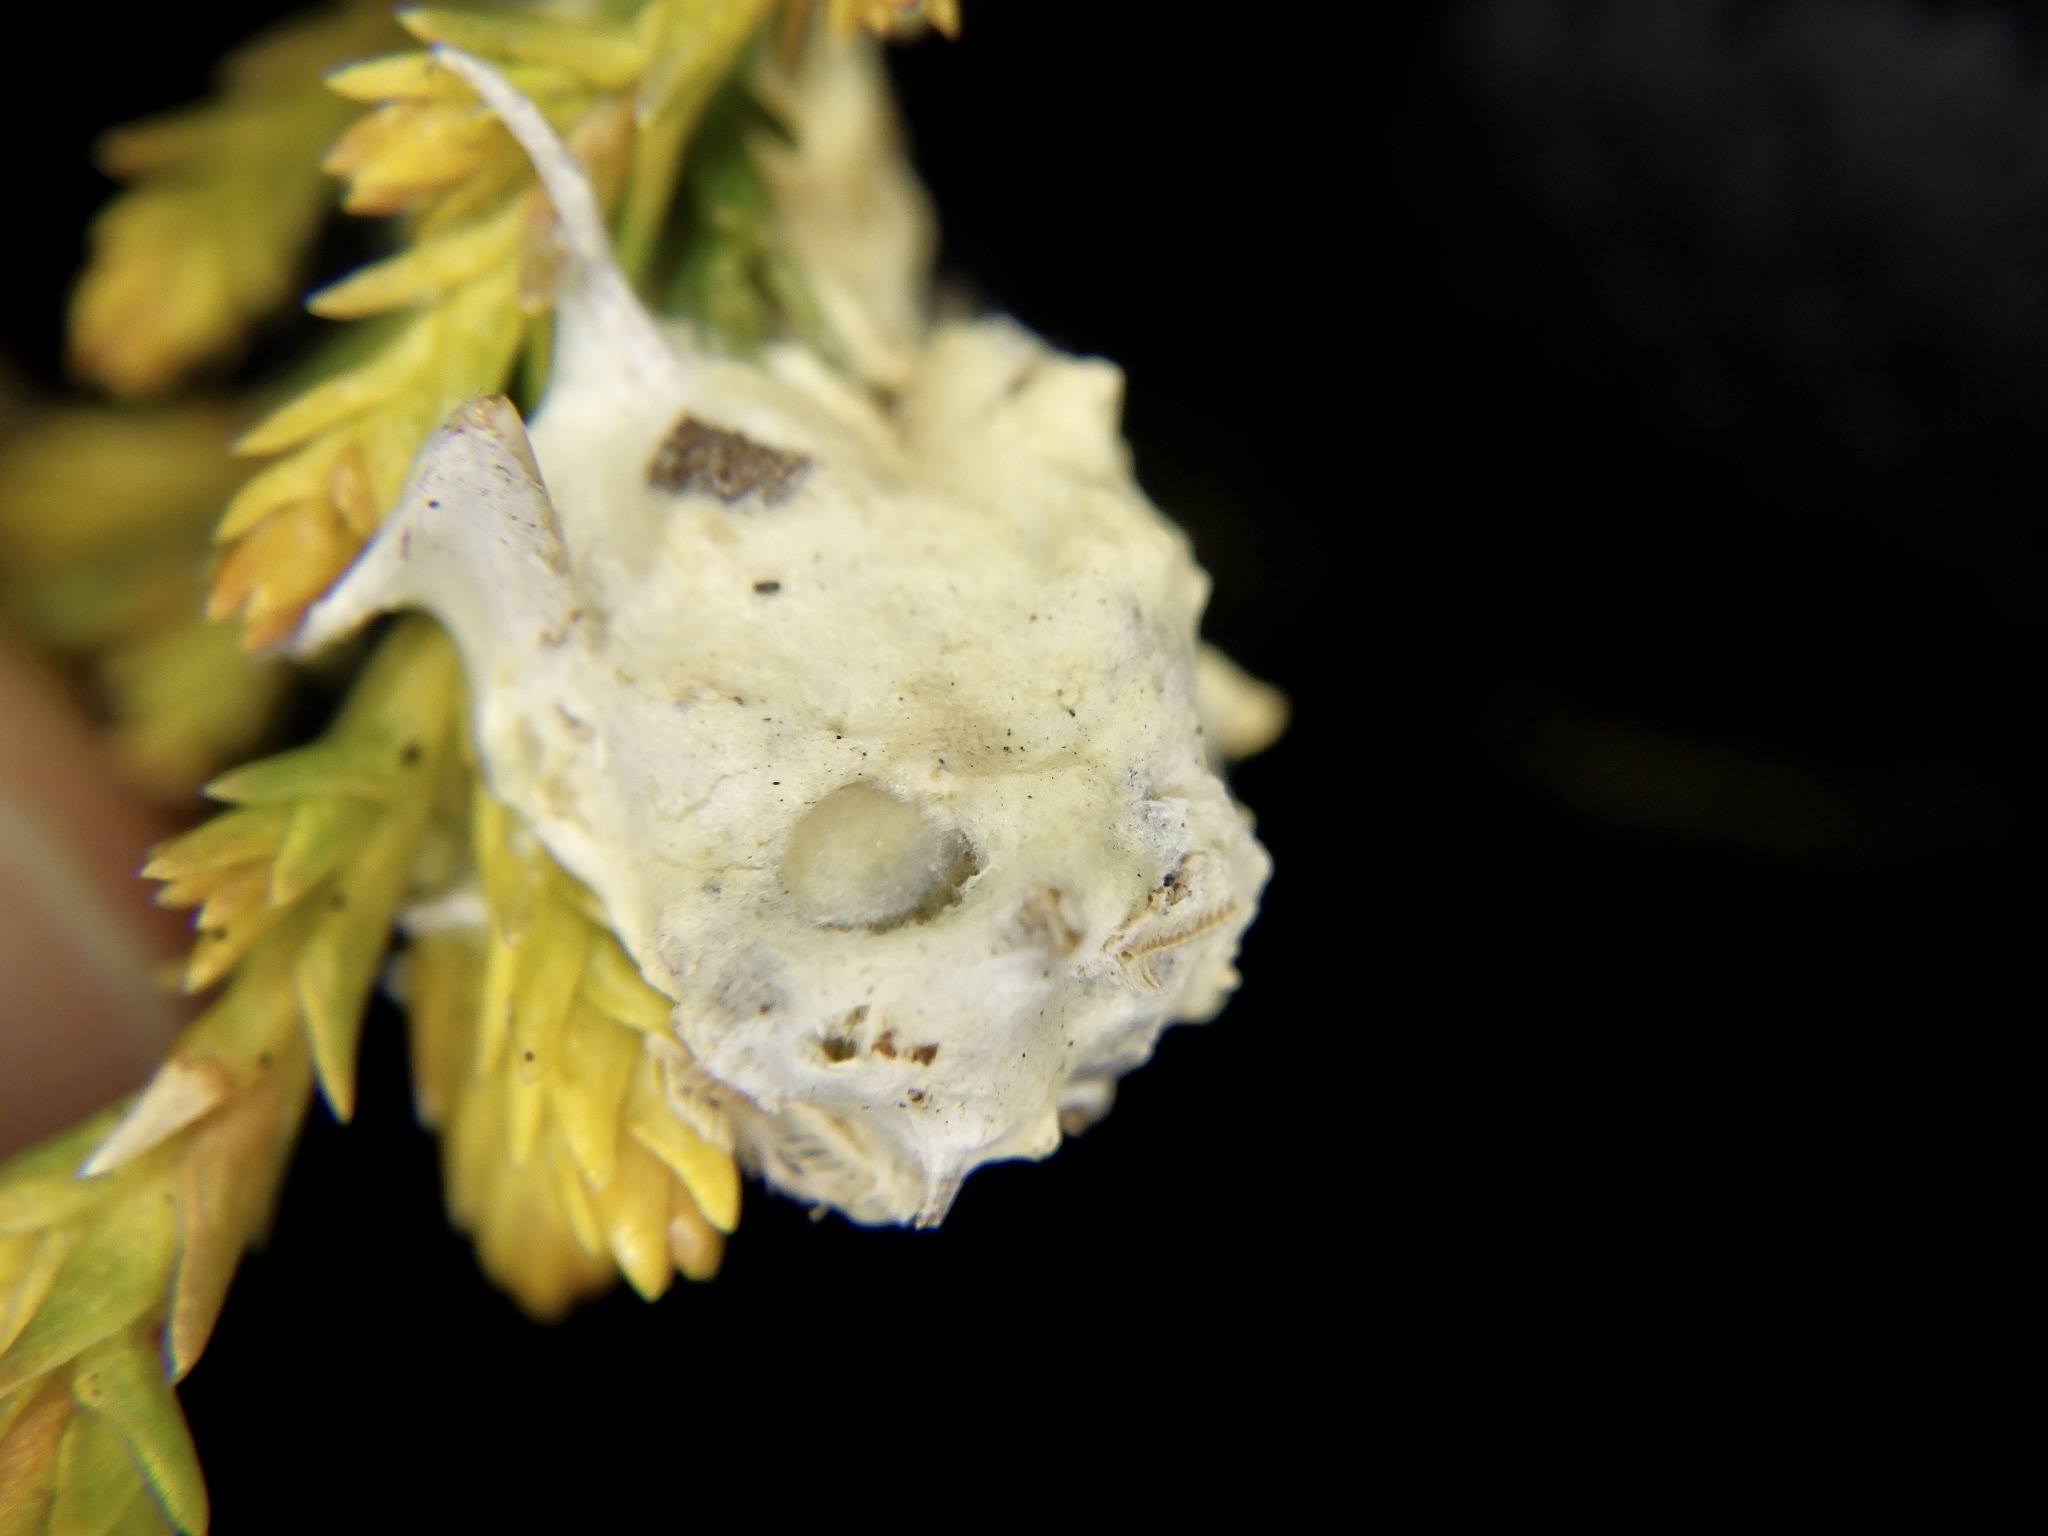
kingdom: Animalia
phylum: Arthropoda
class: Insecta
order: Lepidoptera
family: Noctuidae
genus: Agrotis
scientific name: Agrotis segetum
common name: Turnip moth
